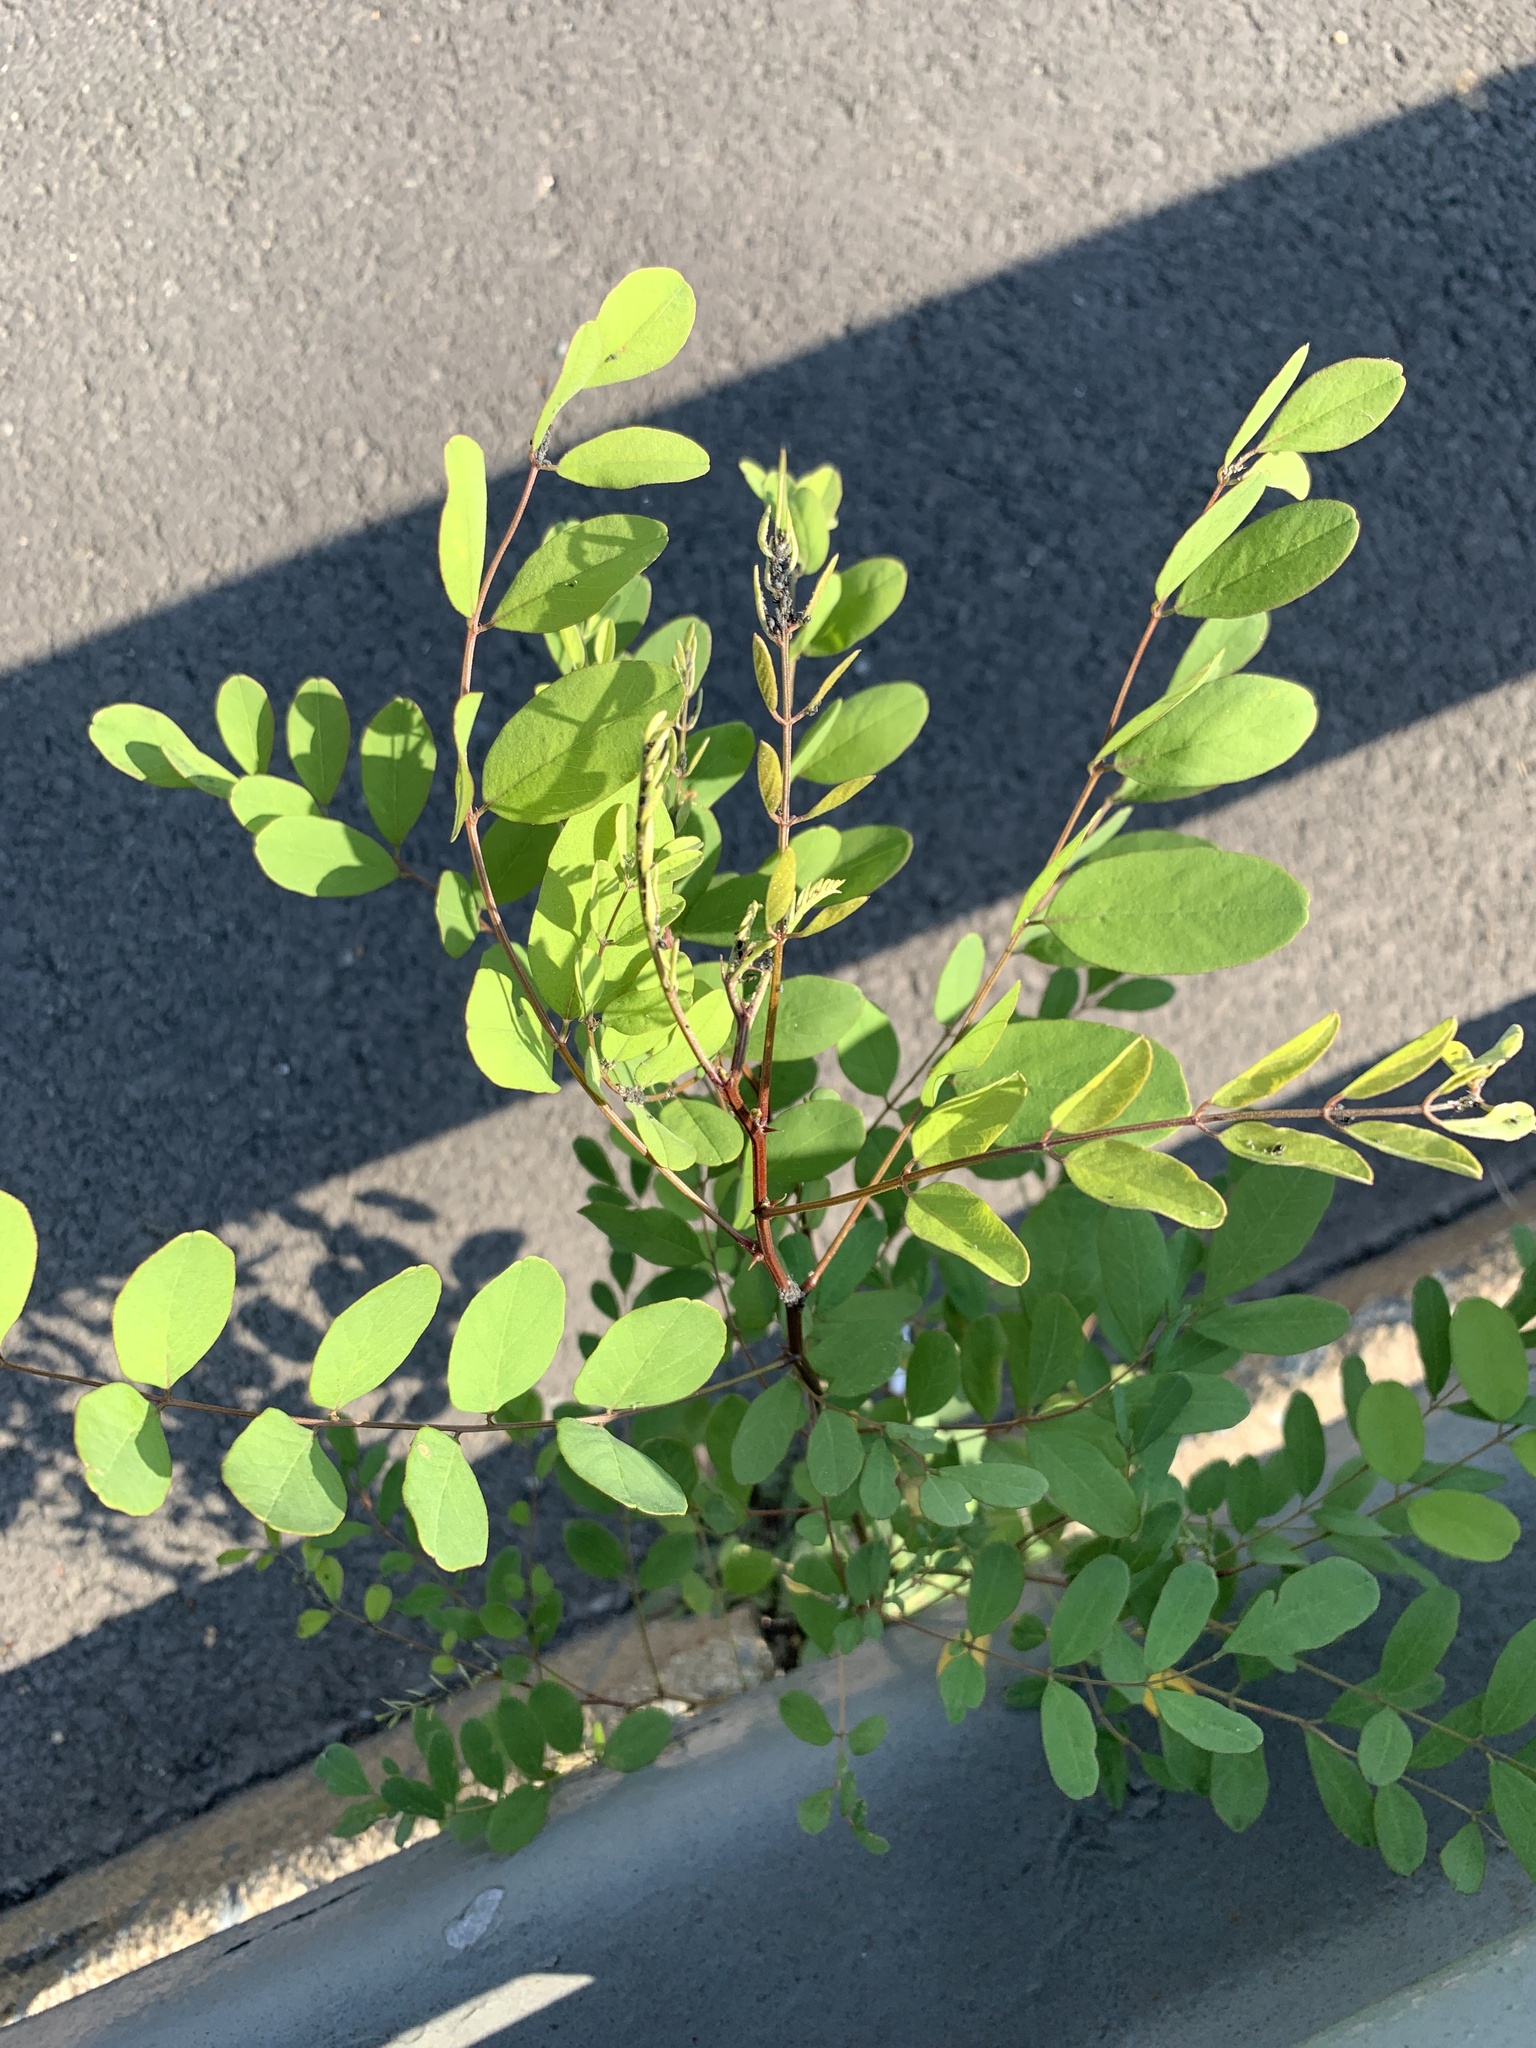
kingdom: Plantae
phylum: Tracheophyta
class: Magnoliopsida
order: Fabales
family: Fabaceae
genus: Robinia
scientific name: Robinia pseudoacacia
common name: Black locust
